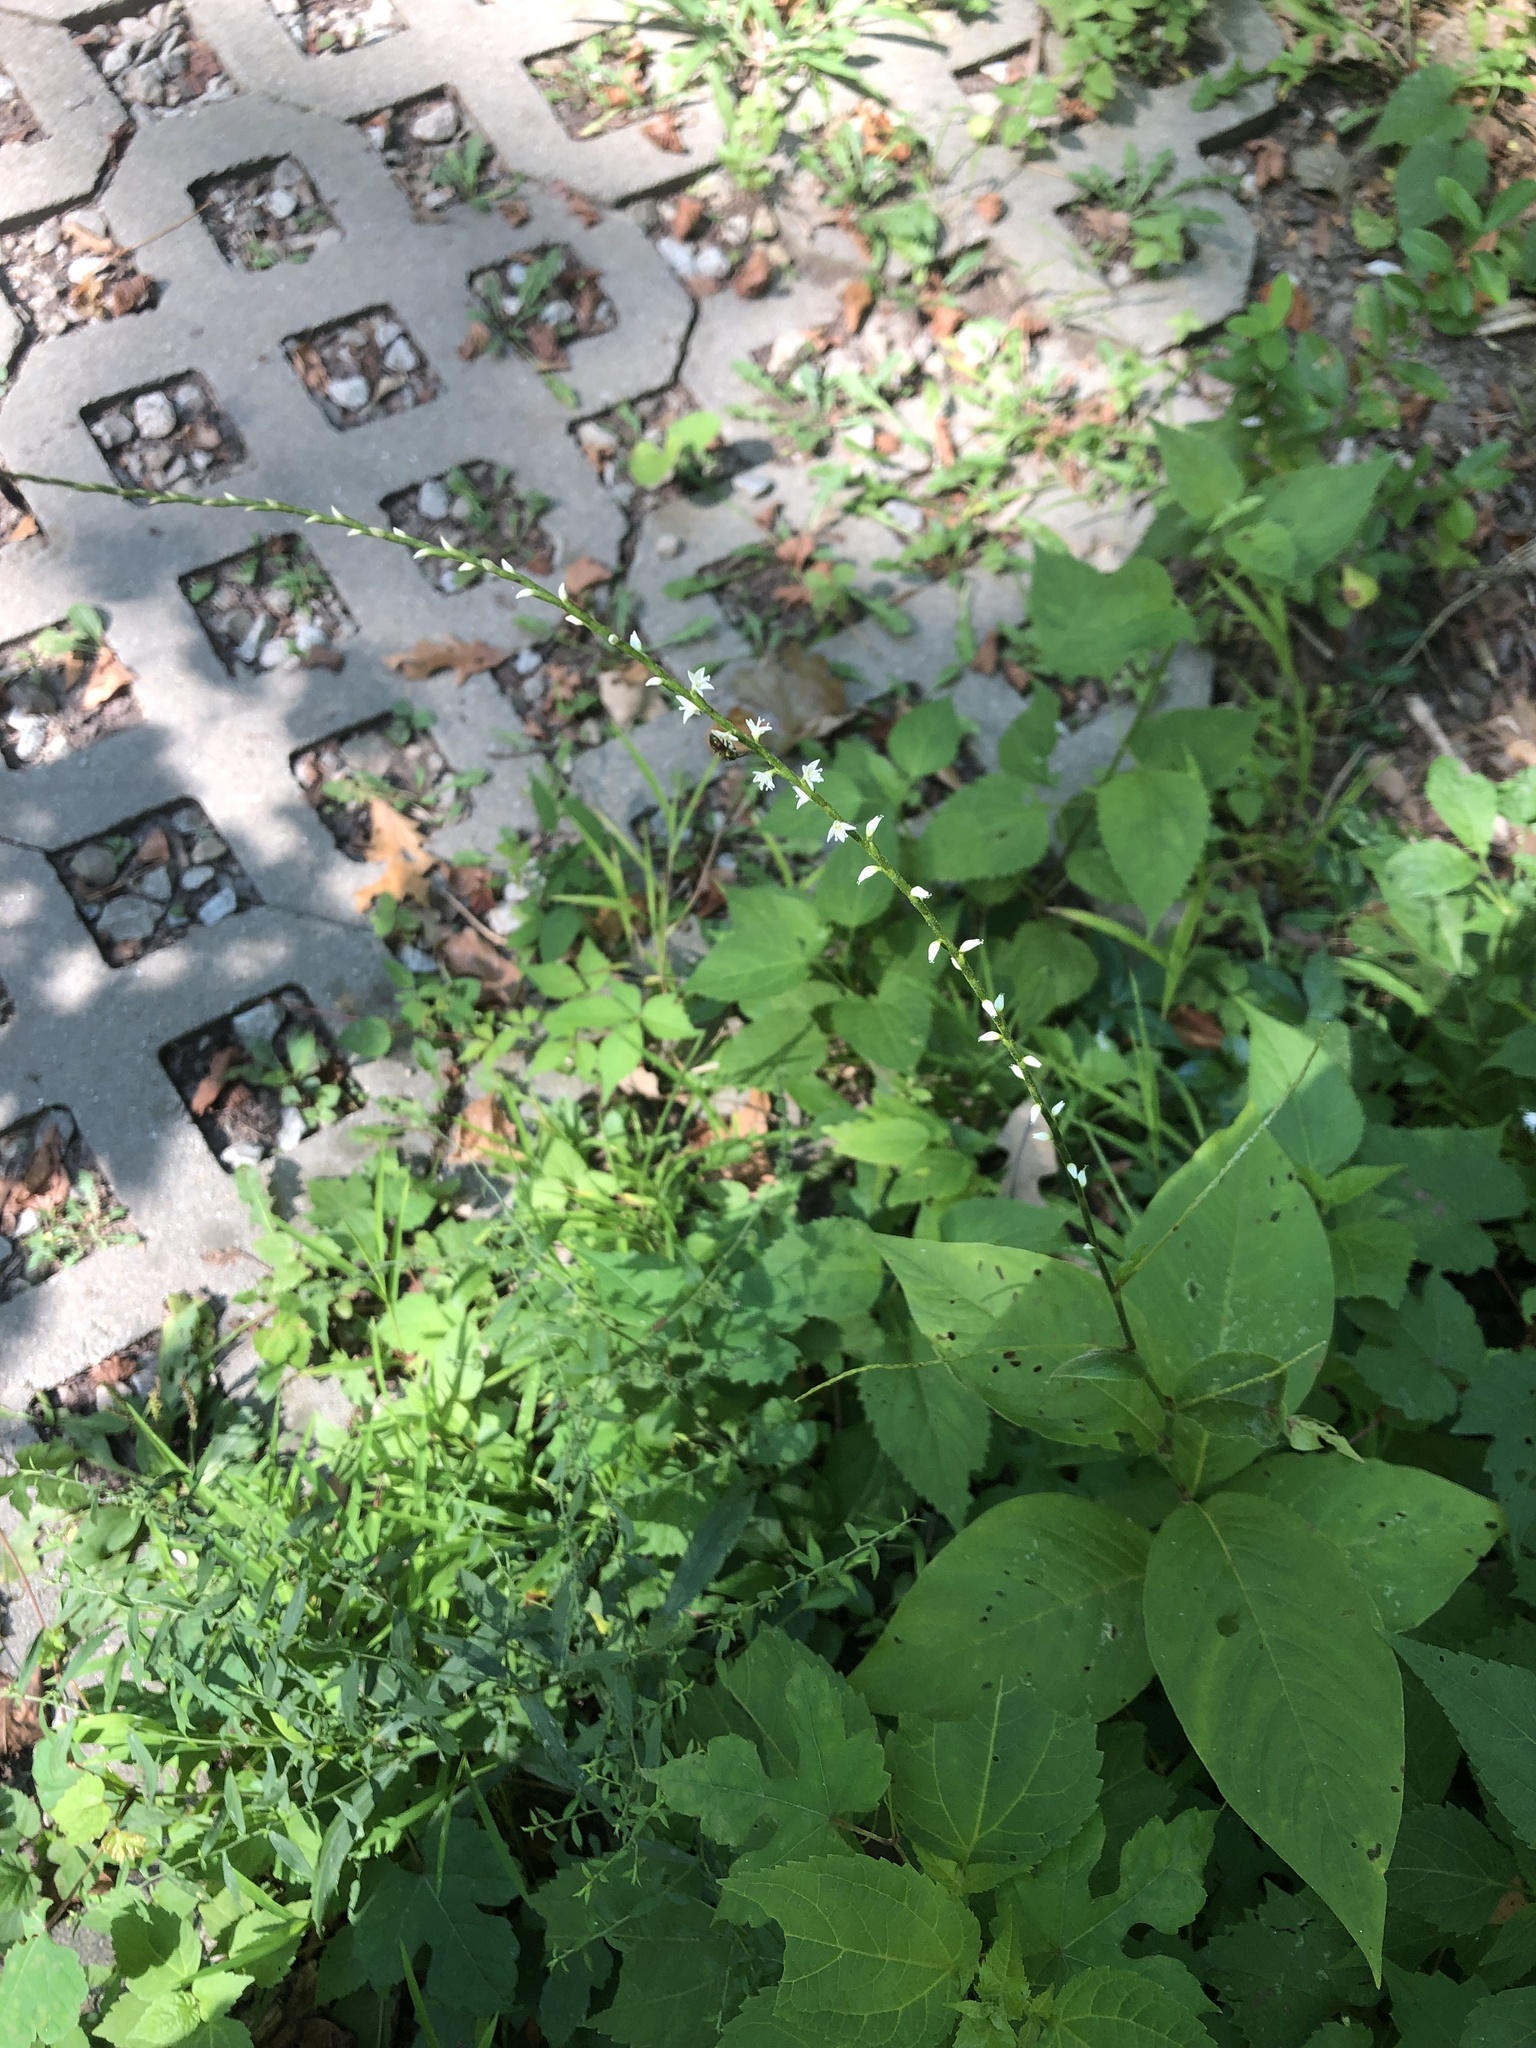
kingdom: Plantae
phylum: Tracheophyta
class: Magnoliopsida
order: Caryophyllales
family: Polygonaceae
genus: Persicaria
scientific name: Persicaria virginiana
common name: Jumpseed
